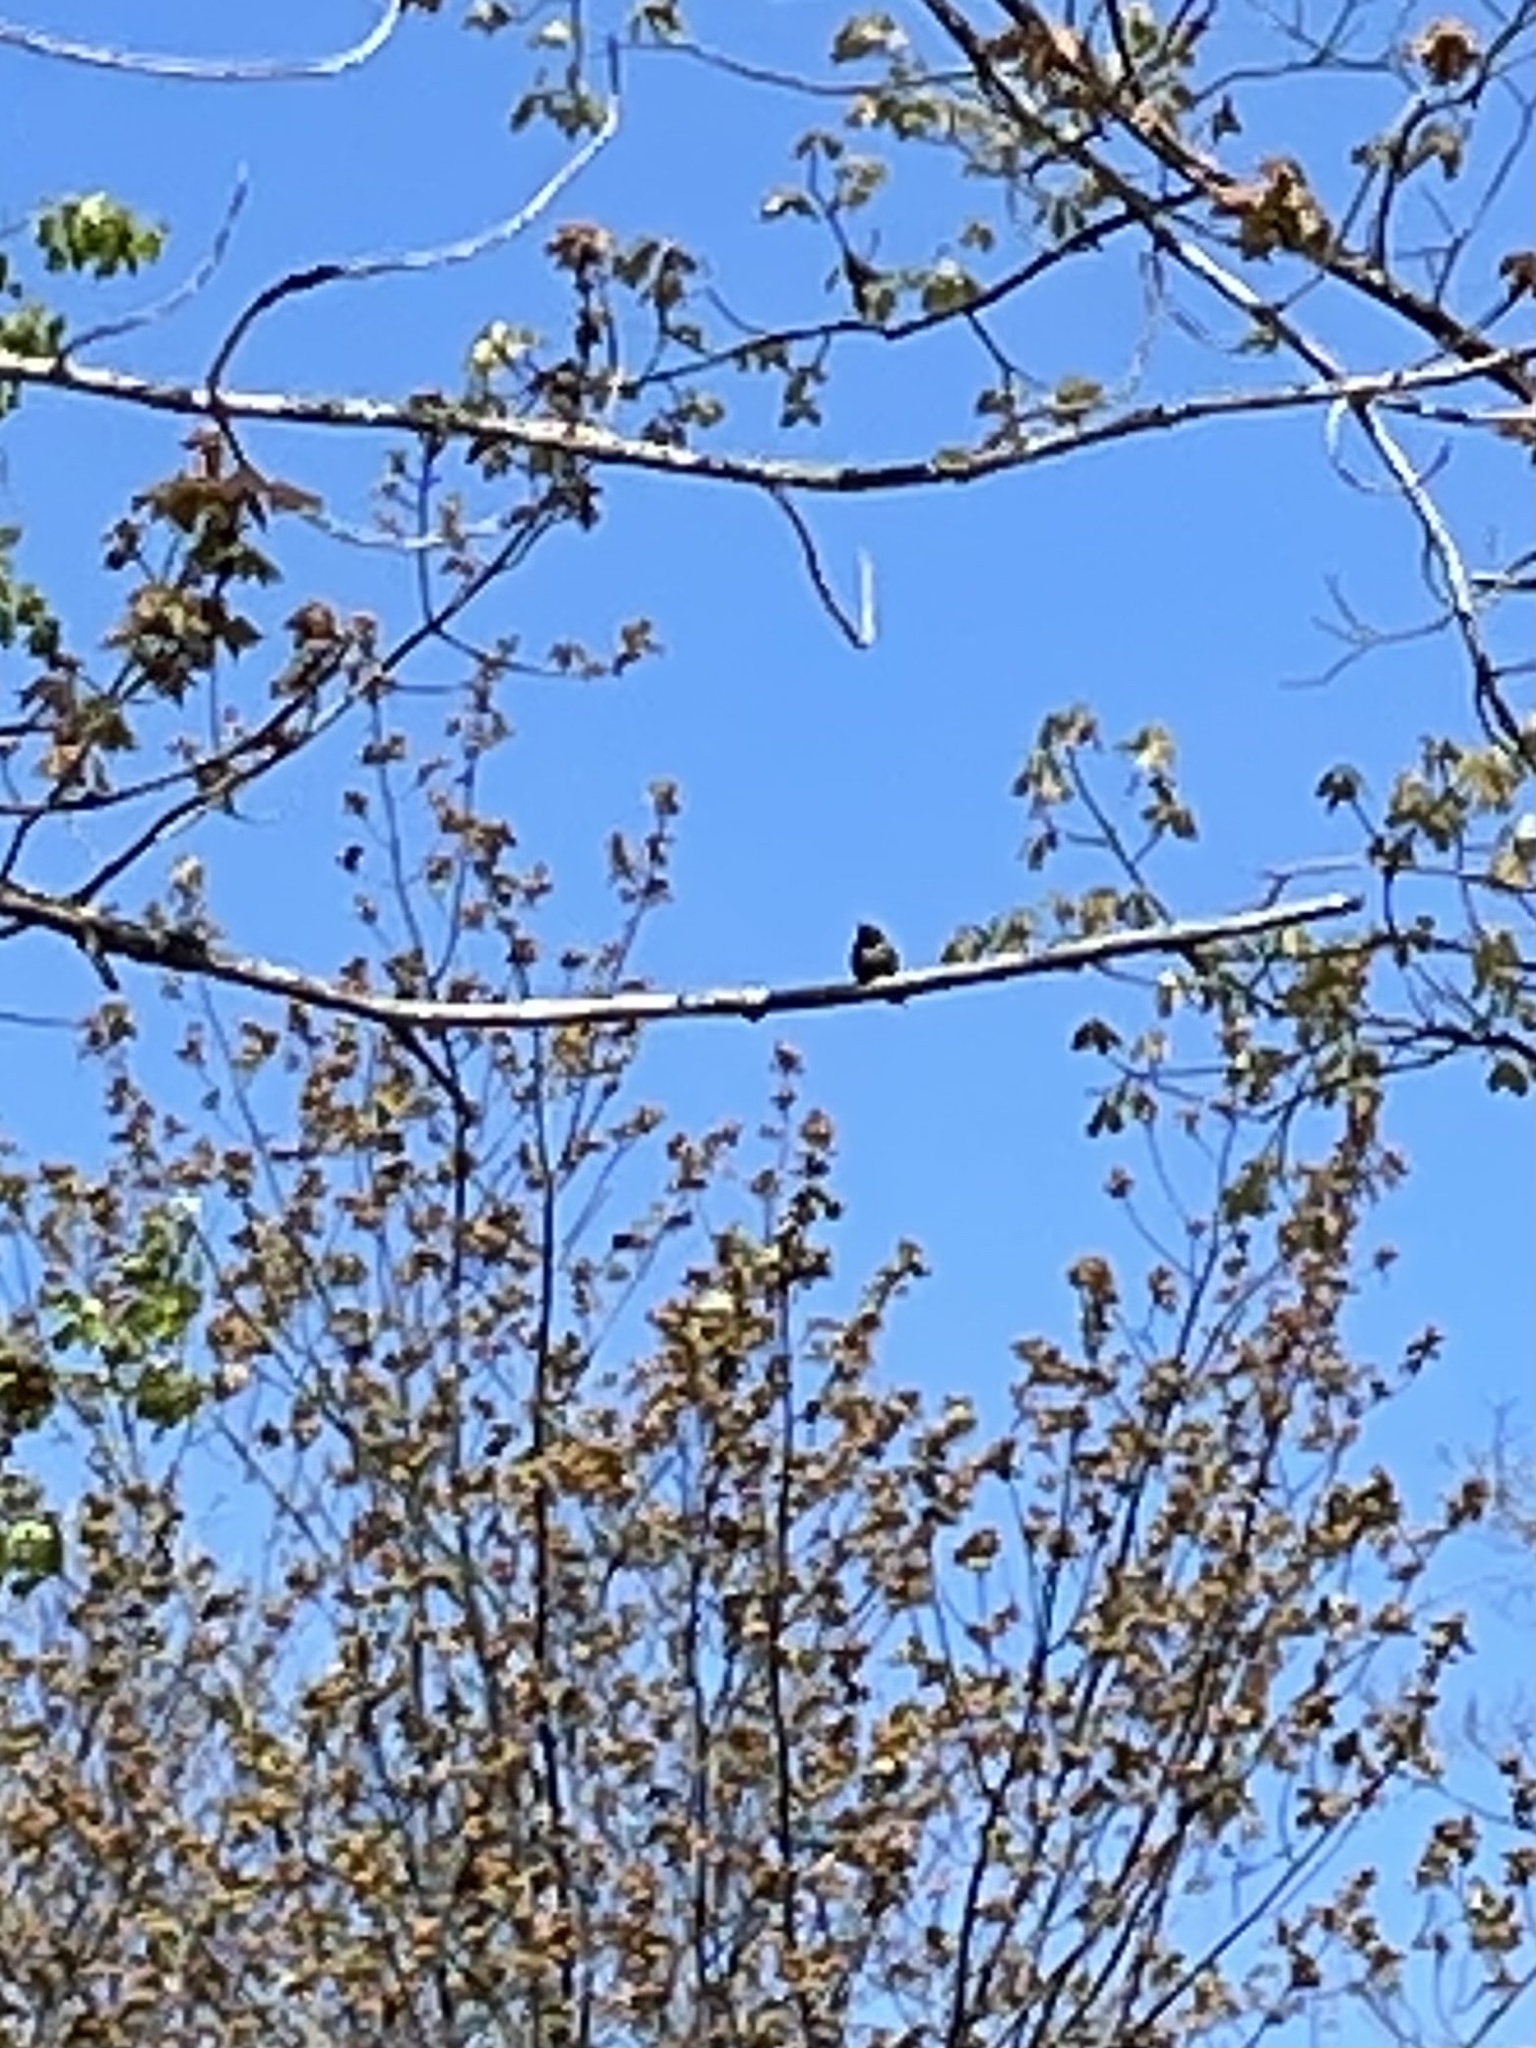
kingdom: Animalia
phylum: Chordata
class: Aves
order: Apodiformes
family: Trochilidae
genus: Archilochus
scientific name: Archilochus colubris
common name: Ruby-throated hummingbird
